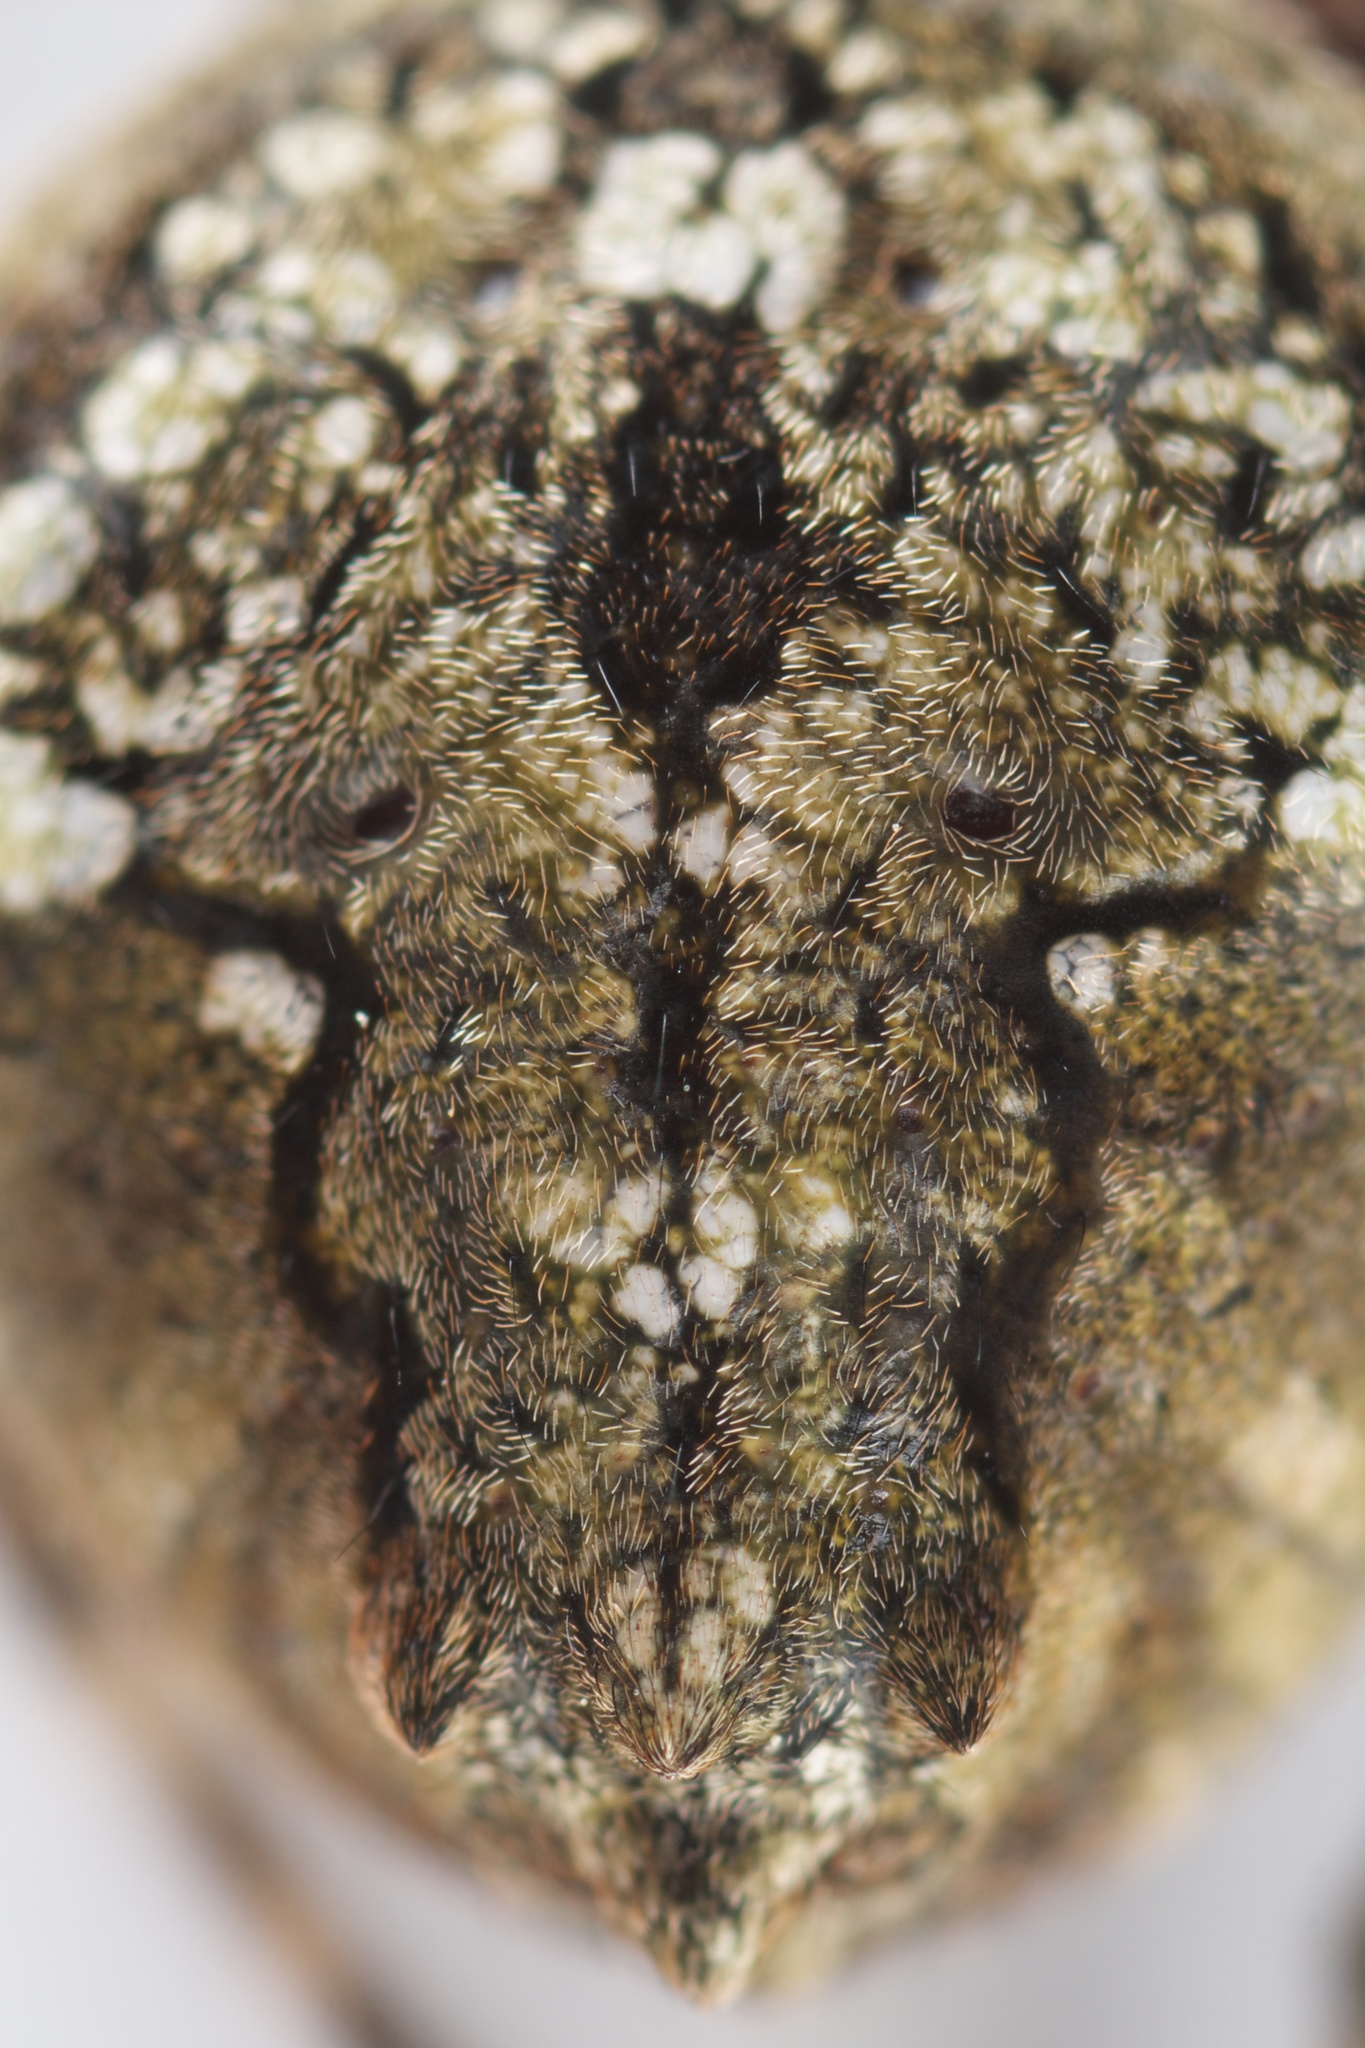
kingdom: Animalia
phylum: Arthropoda
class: Arachnida
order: Araneae
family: Araneidae
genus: Eriophora
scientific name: Eriophora pustulosa
